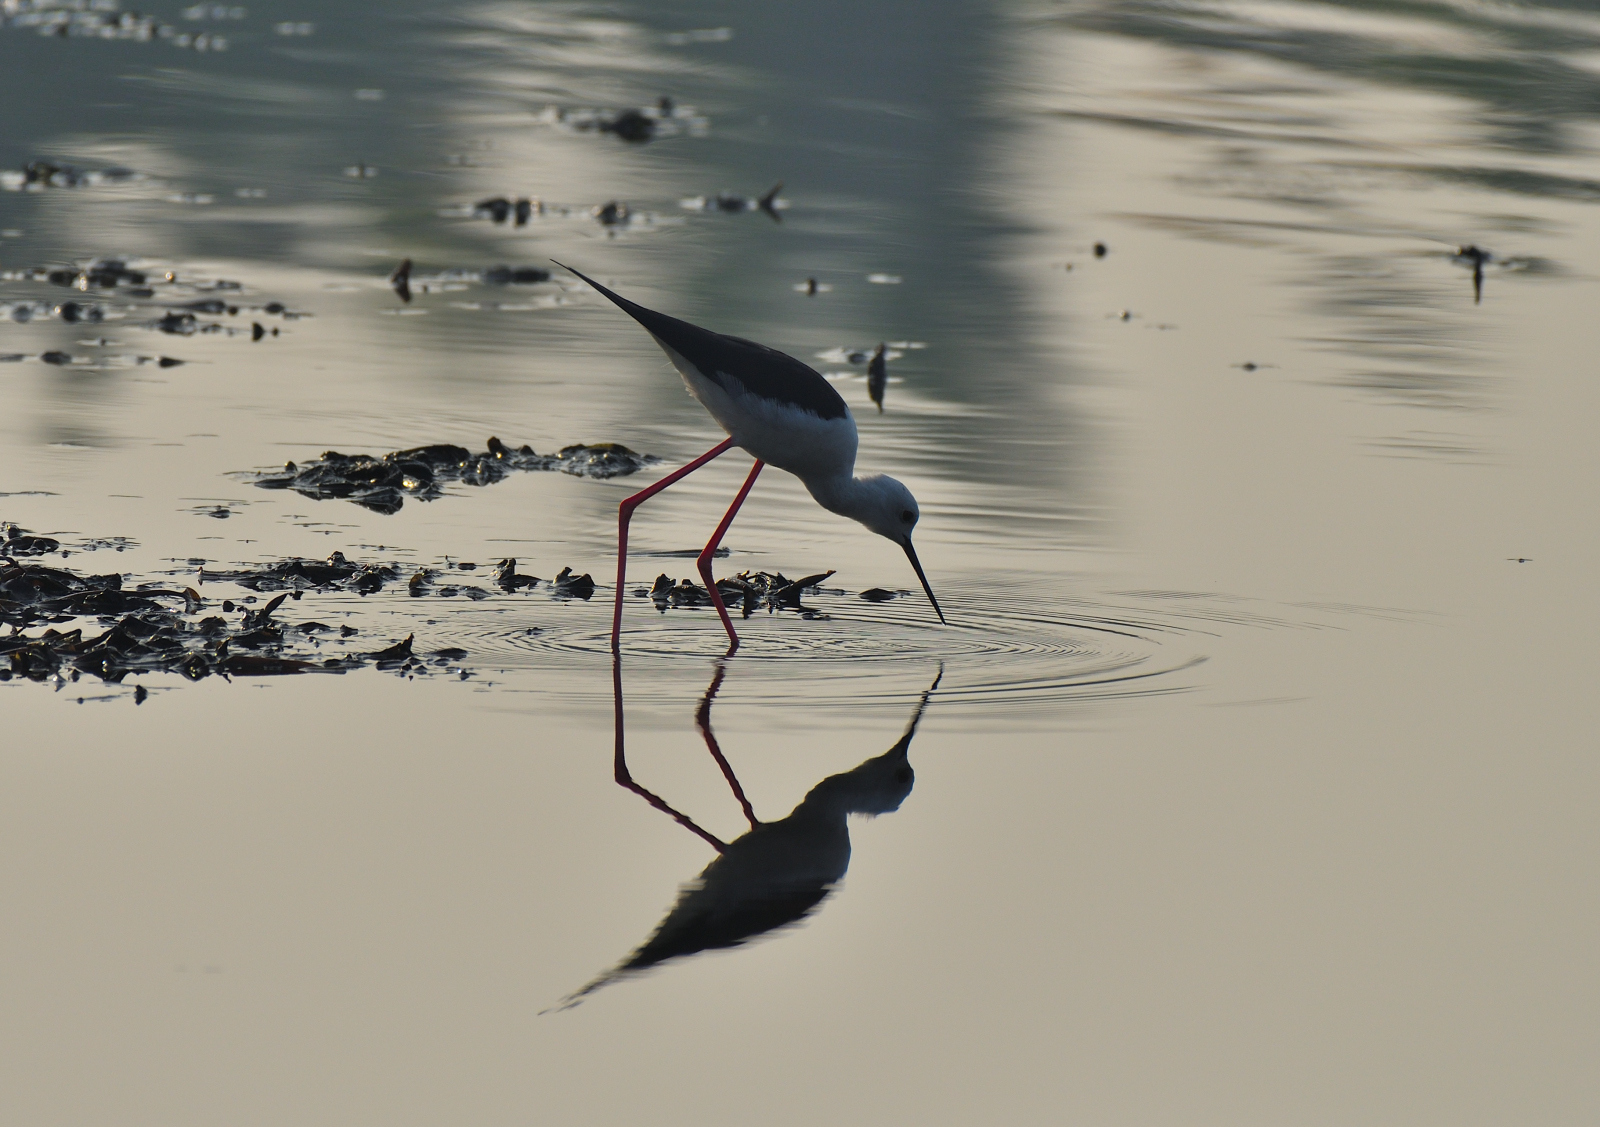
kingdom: Animalia
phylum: Chordata
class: Aves
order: Charadriiformes
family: Recurvirostridae
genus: Himantopus
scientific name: Himantopus himantopus
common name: Black-winged stilt
